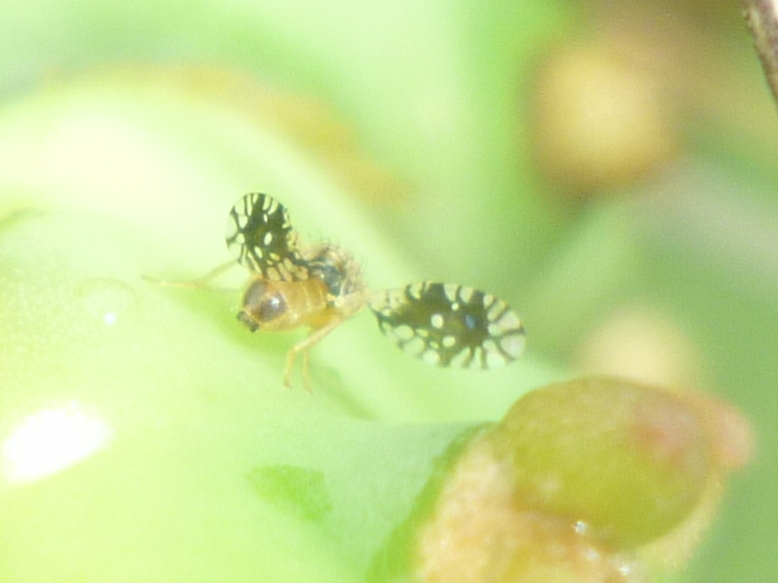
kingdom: Animalia
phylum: Arthropoda
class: Insecta
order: Diptera
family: Tephritidae
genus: Euaresta
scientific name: Euaresta bella
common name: Common ragweed fruit fly
